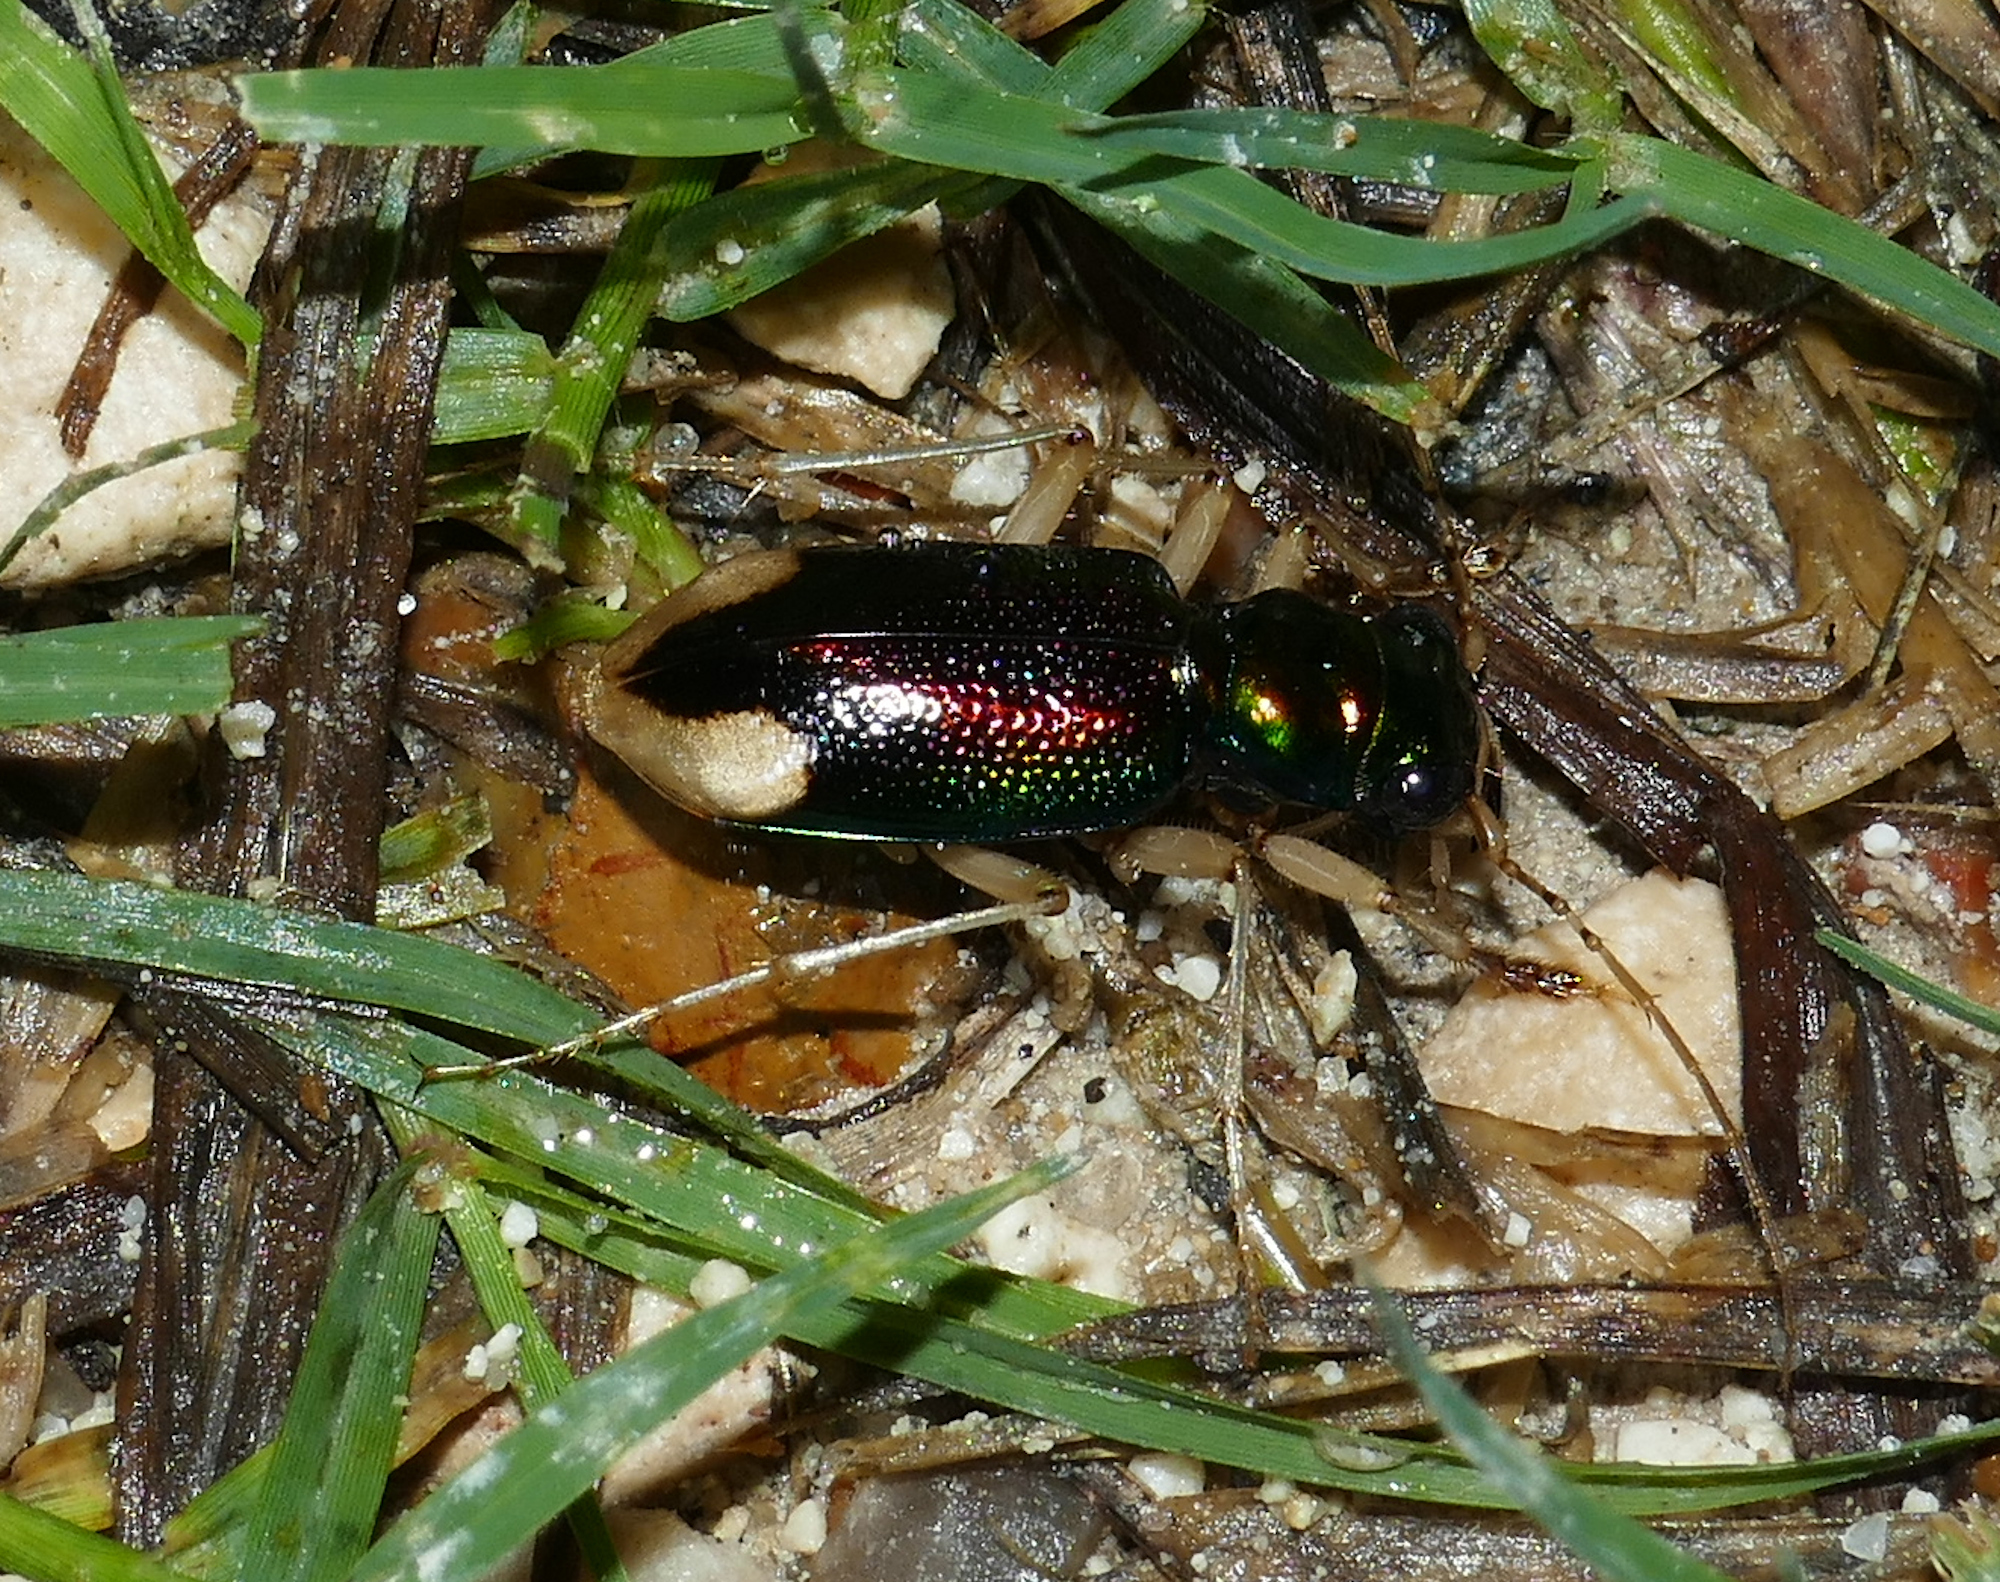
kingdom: Animalia
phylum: Arthropoda
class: Insecta
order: Coleoptera
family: Carabidae
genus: Tetracha
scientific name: Tetracha carolina
